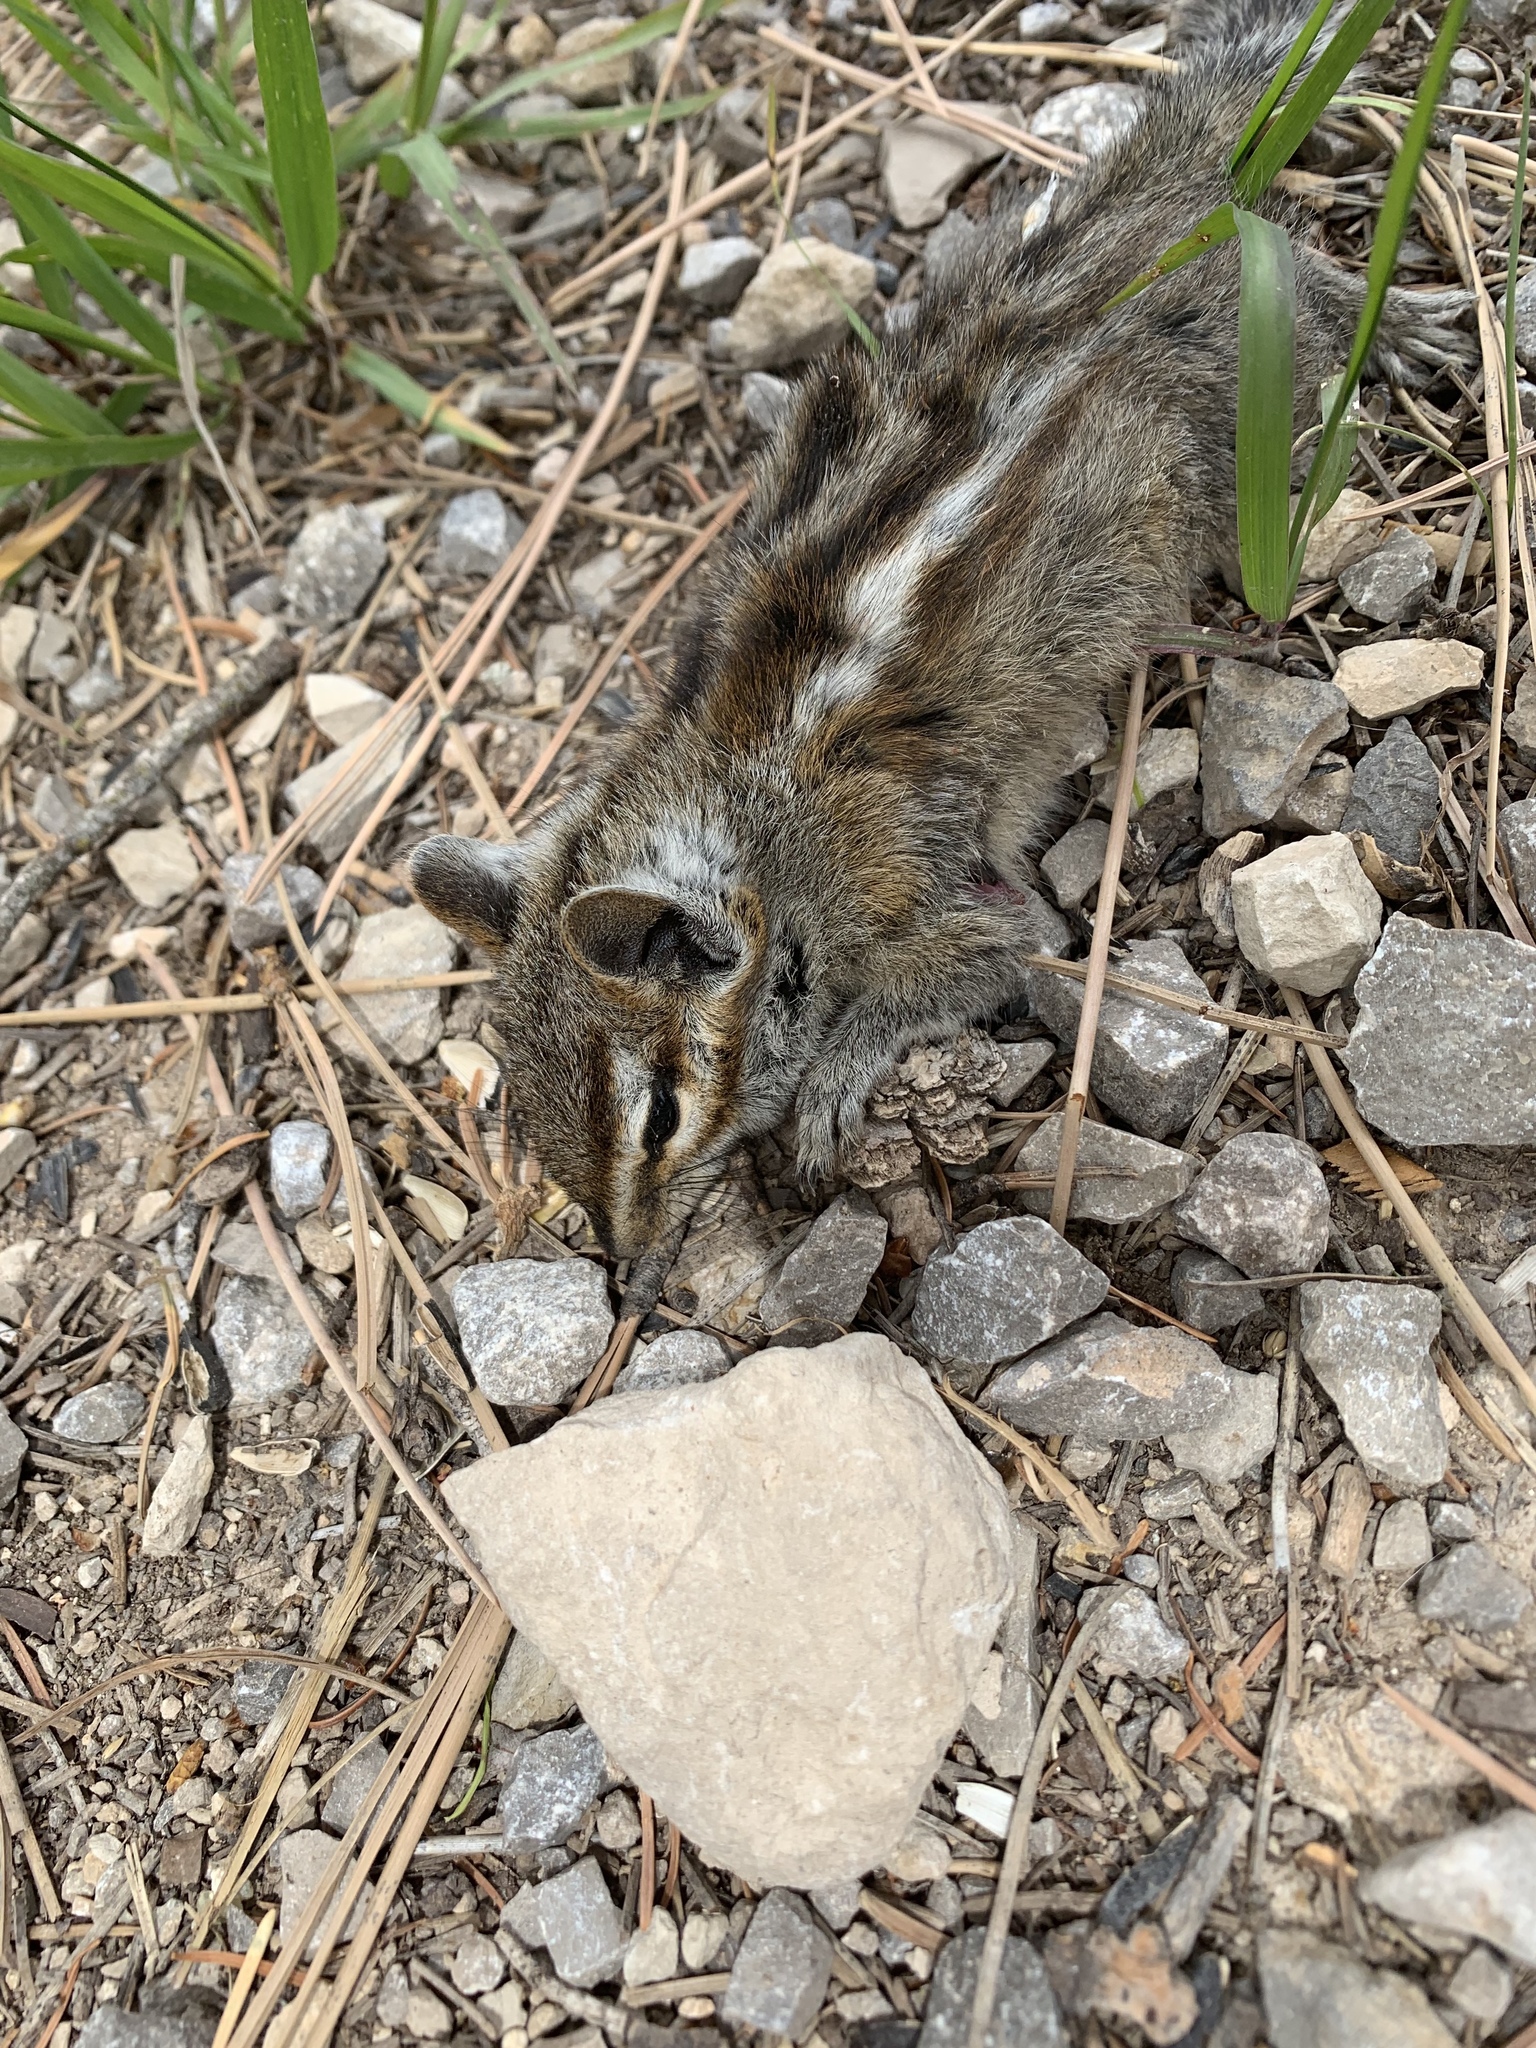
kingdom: Animalia
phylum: Chordata
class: Mammalia
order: Rodentia
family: Sciuridae
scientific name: Sciuridae
